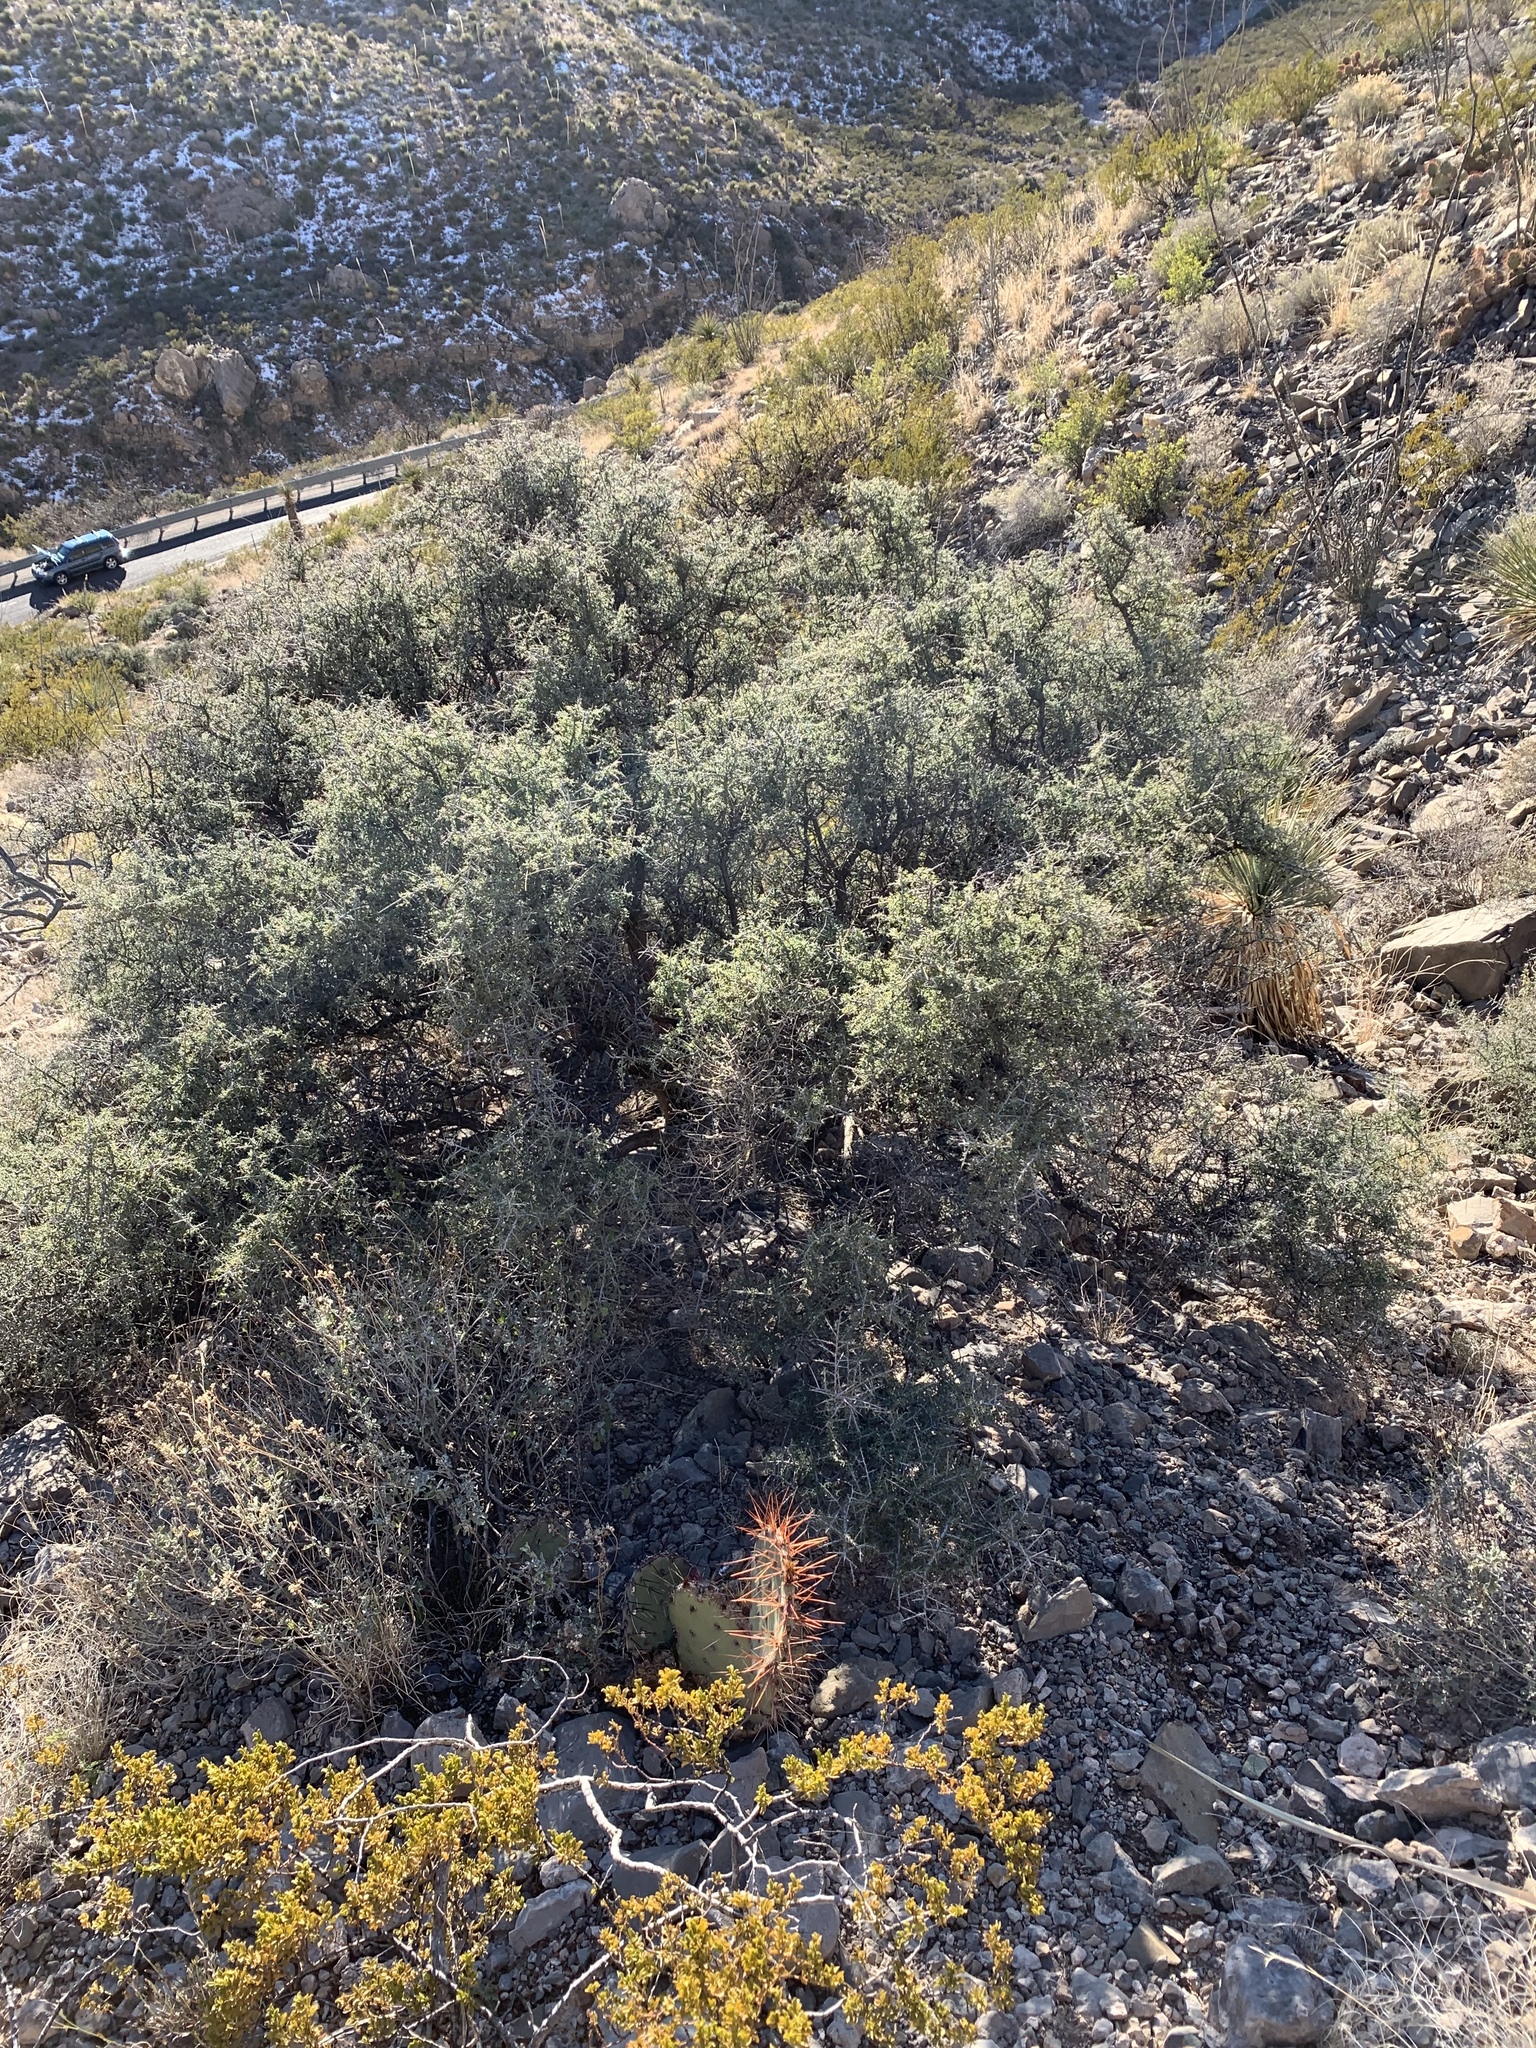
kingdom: Plantae
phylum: Tracheophyta
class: Magnoliopsida
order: Rosales
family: Rhamnaceae
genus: Condalia
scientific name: Condalia warnockii
